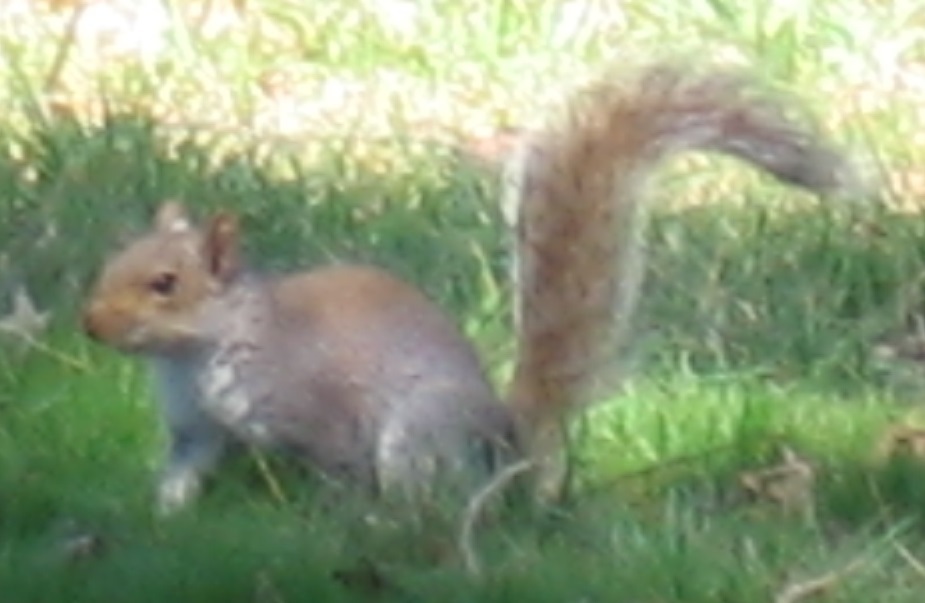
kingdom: Animalia
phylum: Chordata
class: Mammalia
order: Rodentia
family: Sciuridae
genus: Sciurus
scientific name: Sciurus carolinensis
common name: Eastern gray squirrel
